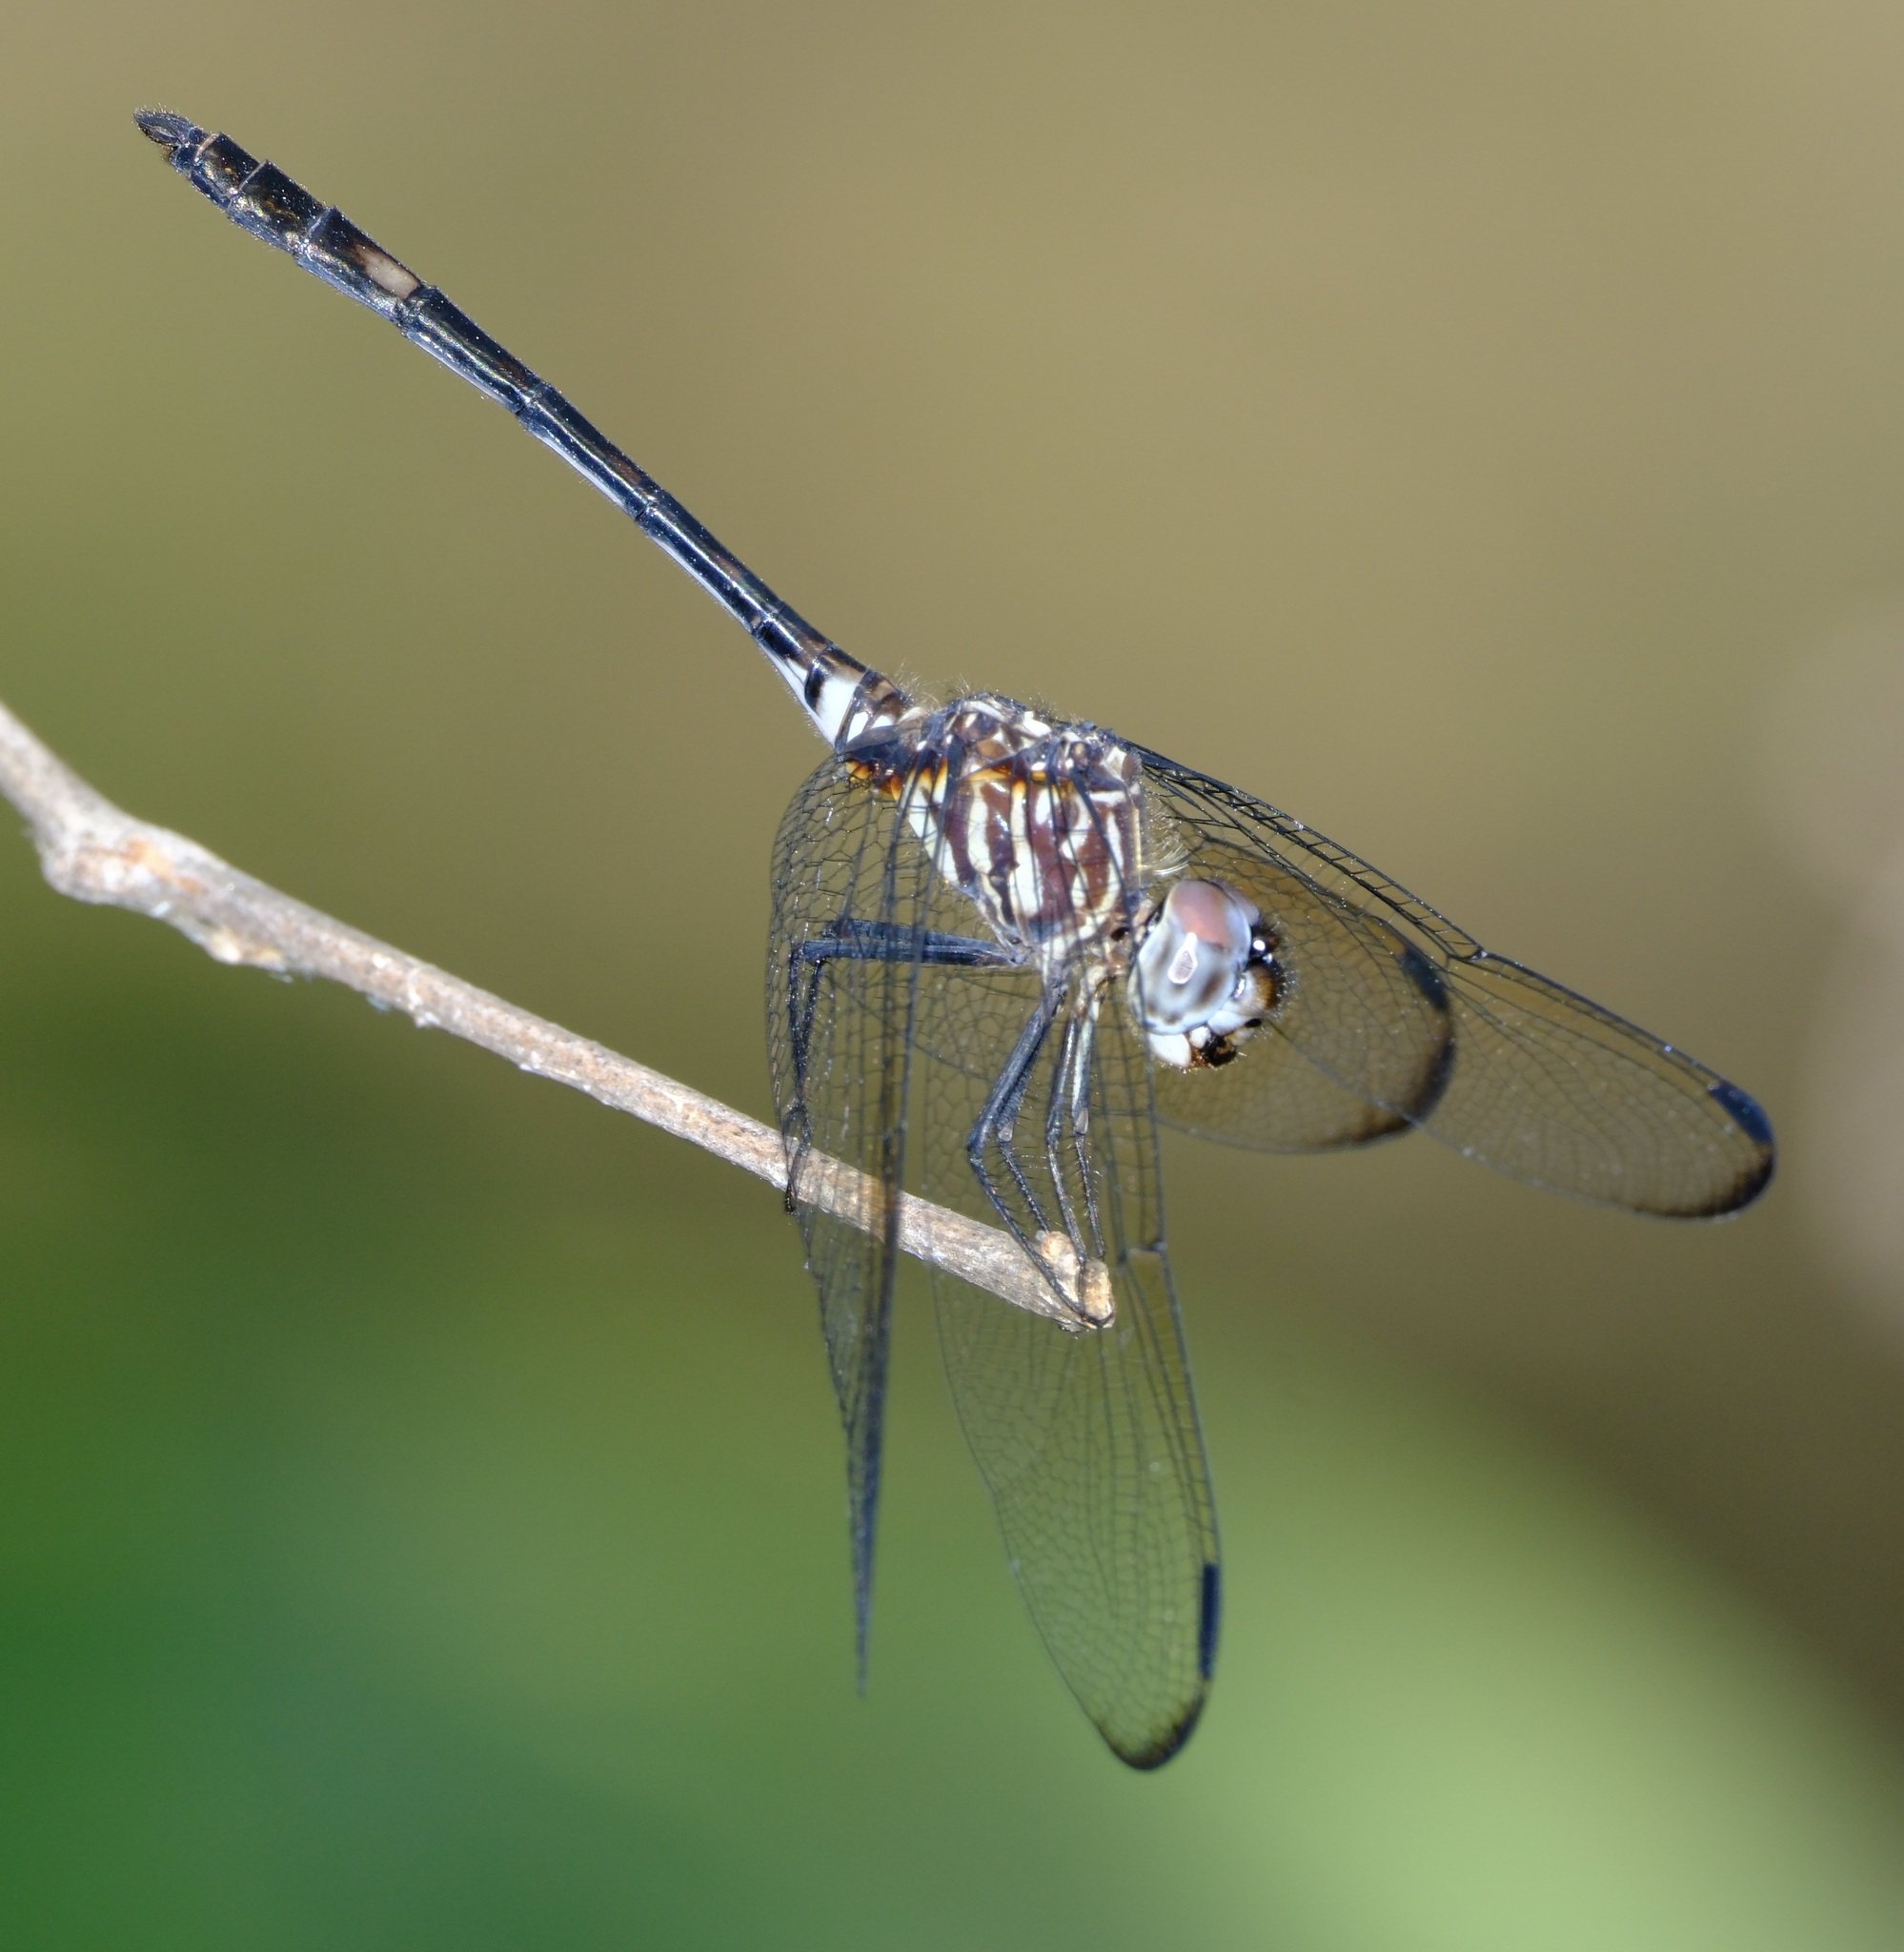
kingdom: Animalia
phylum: Arthropoda
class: Insecta
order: Odonata
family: Libellulidae
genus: Dythemis
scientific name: Dythemis velox
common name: Swift setwing
